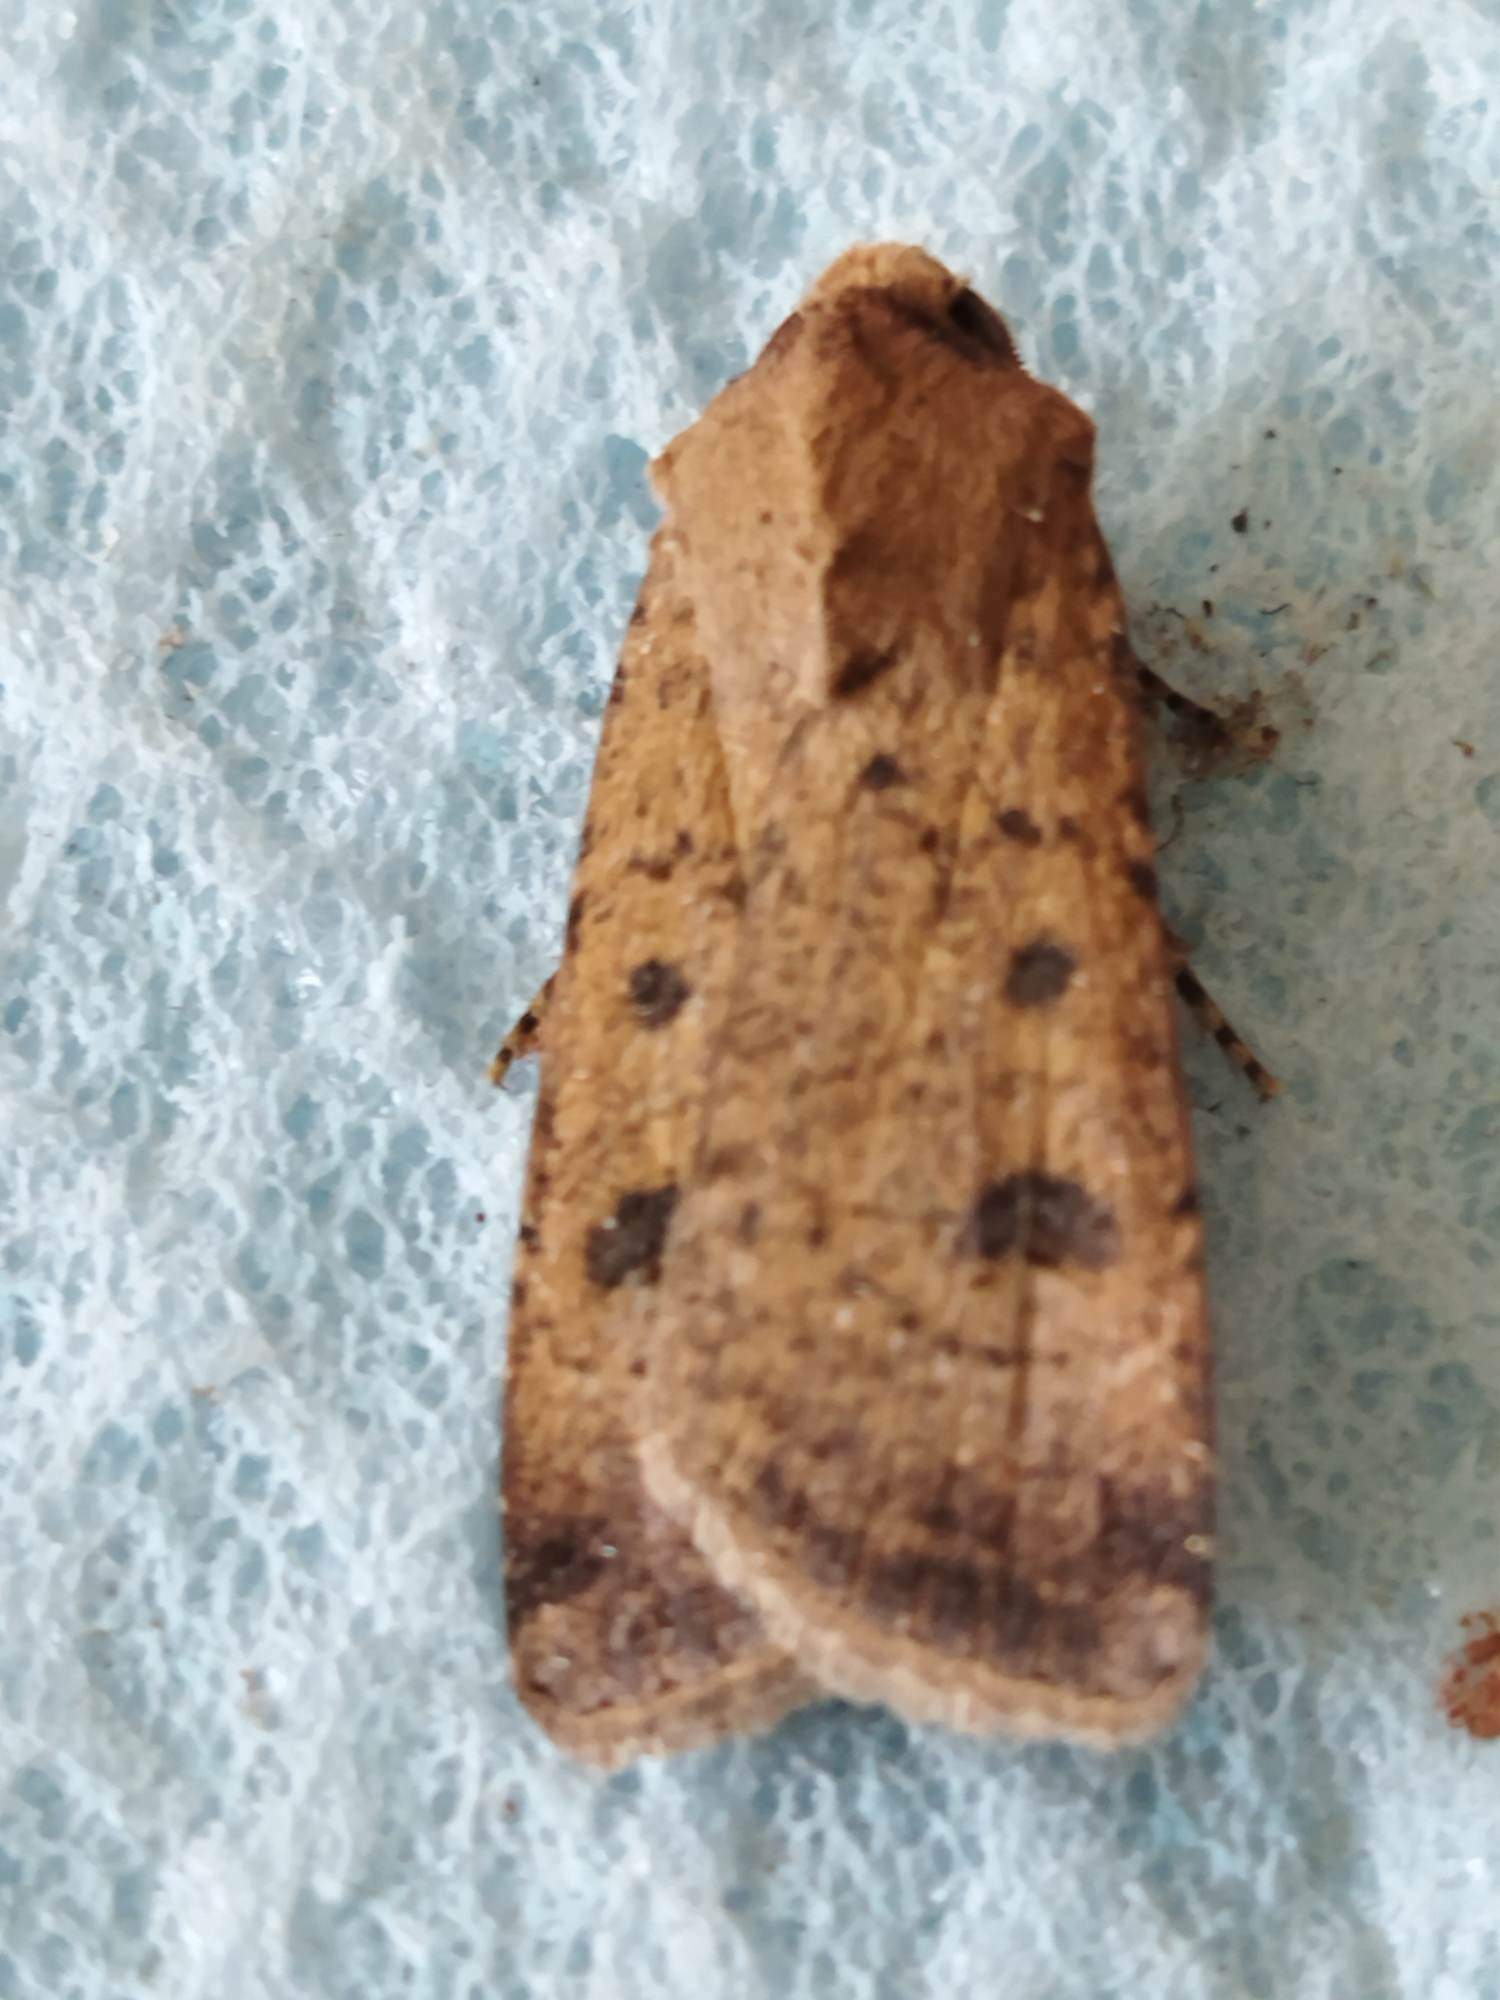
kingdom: Animalia
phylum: Arthropoda
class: Insecta
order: Lepidoptera
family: Noctuidae
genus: Agrotis
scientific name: Agrotis trux
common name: Crescent dart
